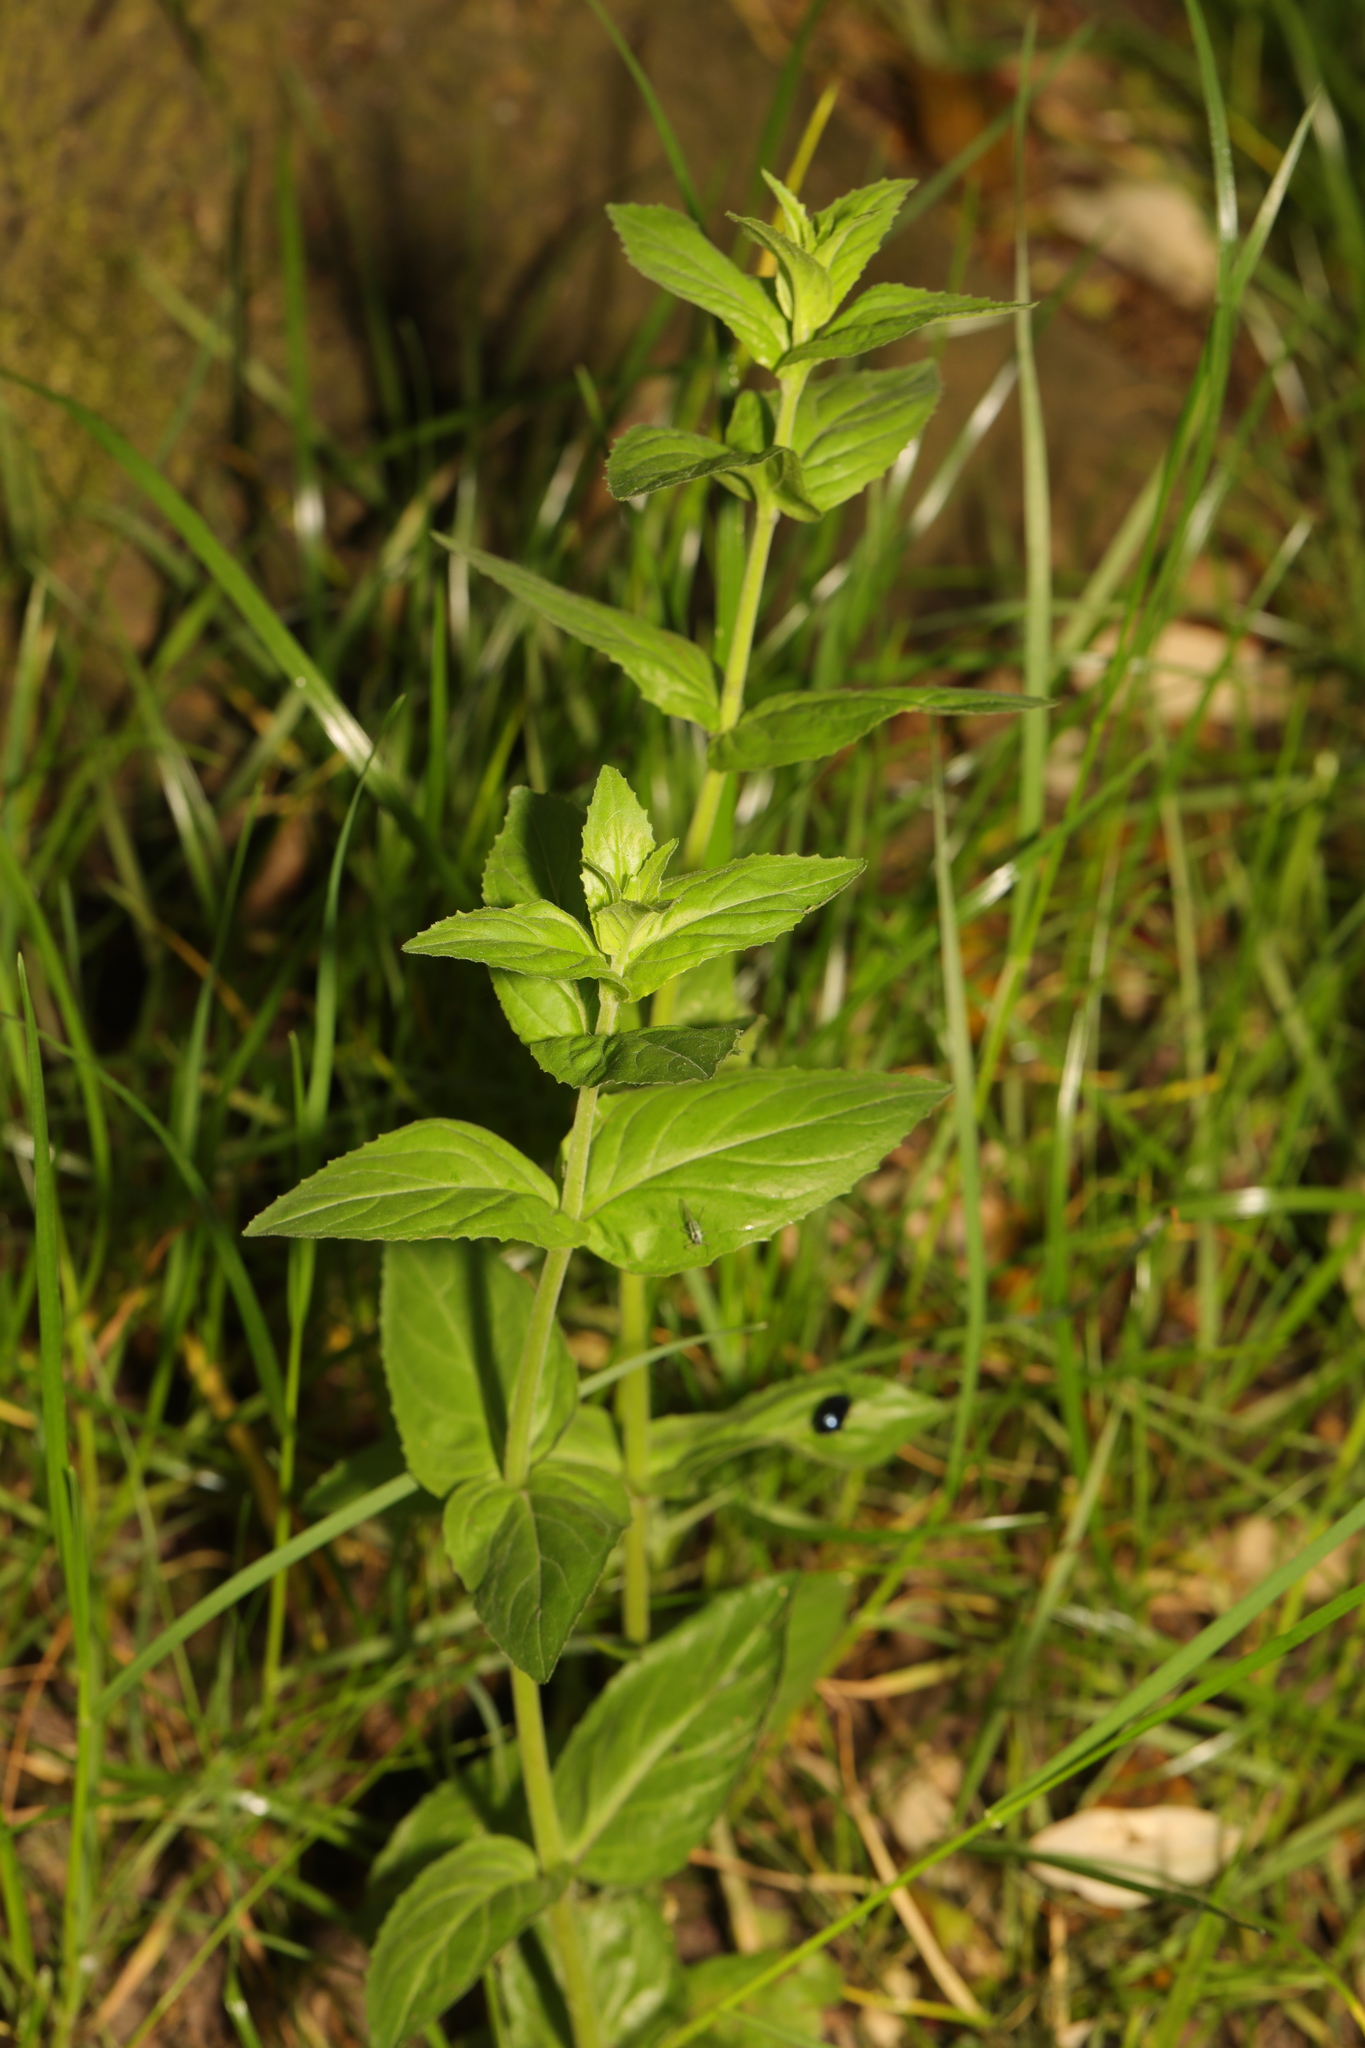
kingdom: Plantae
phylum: Tracheophyta
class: Magnoliopsida
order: Myrtales
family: Onagraceae
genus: Epilobium
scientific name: Epilobium montanum
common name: Broad-leaved willowherb
